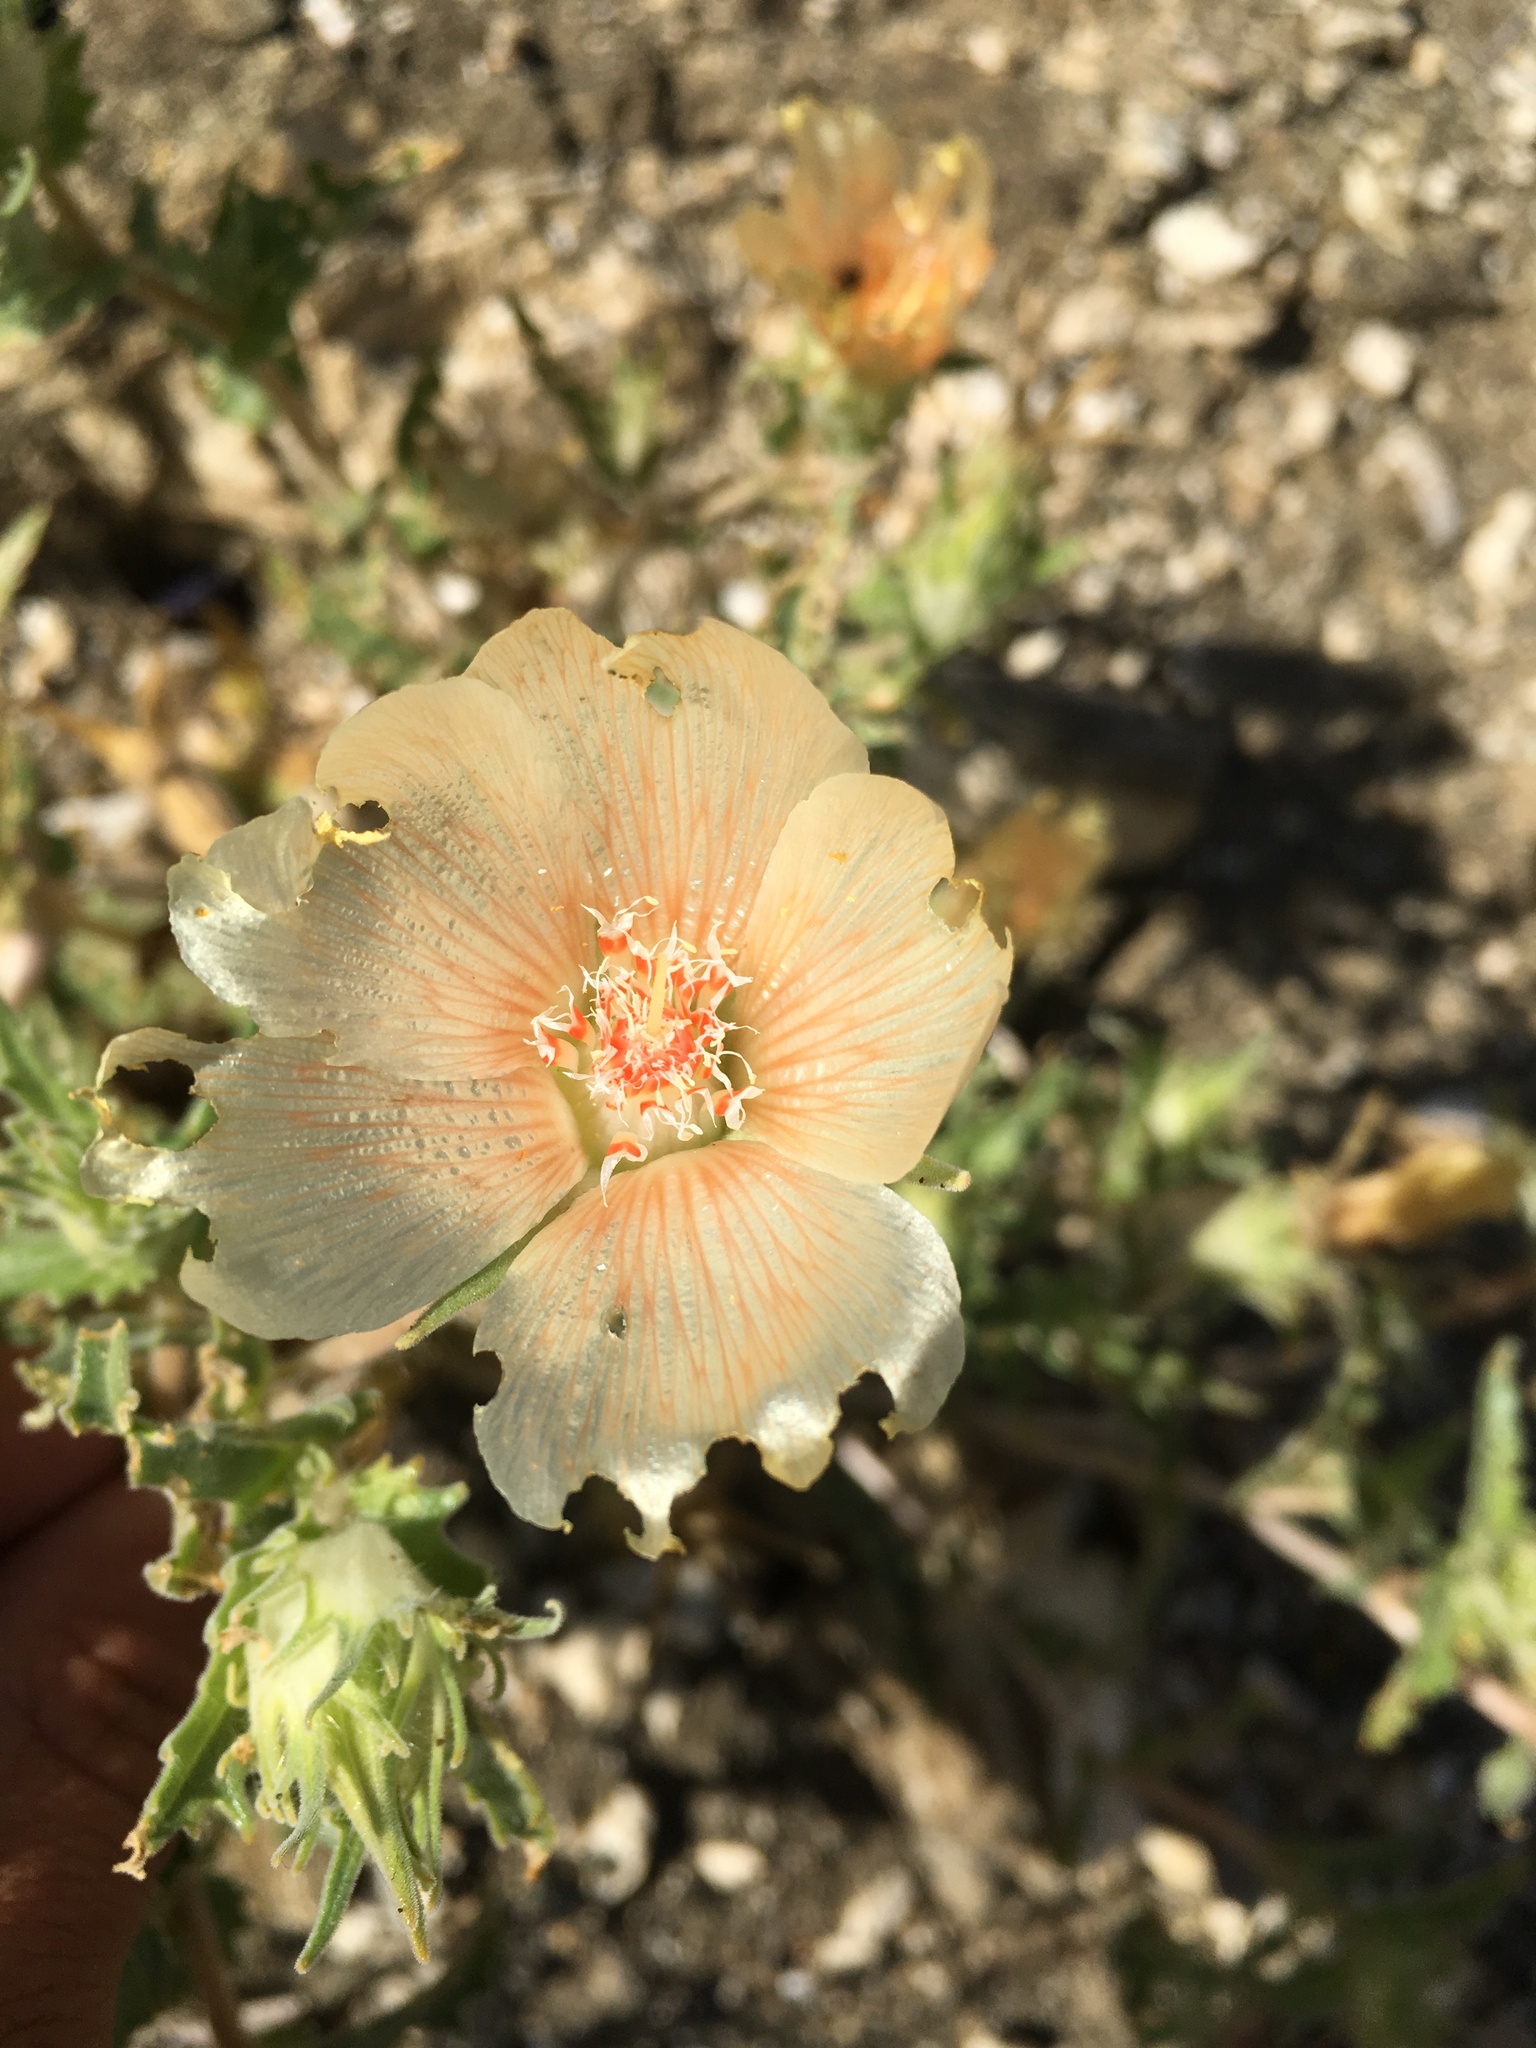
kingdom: Plantae
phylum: Tracheophyta
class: Magnoliopsida
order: Cornales
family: Loasaceae
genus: Mentzelia
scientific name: Mentzelia involucrata
